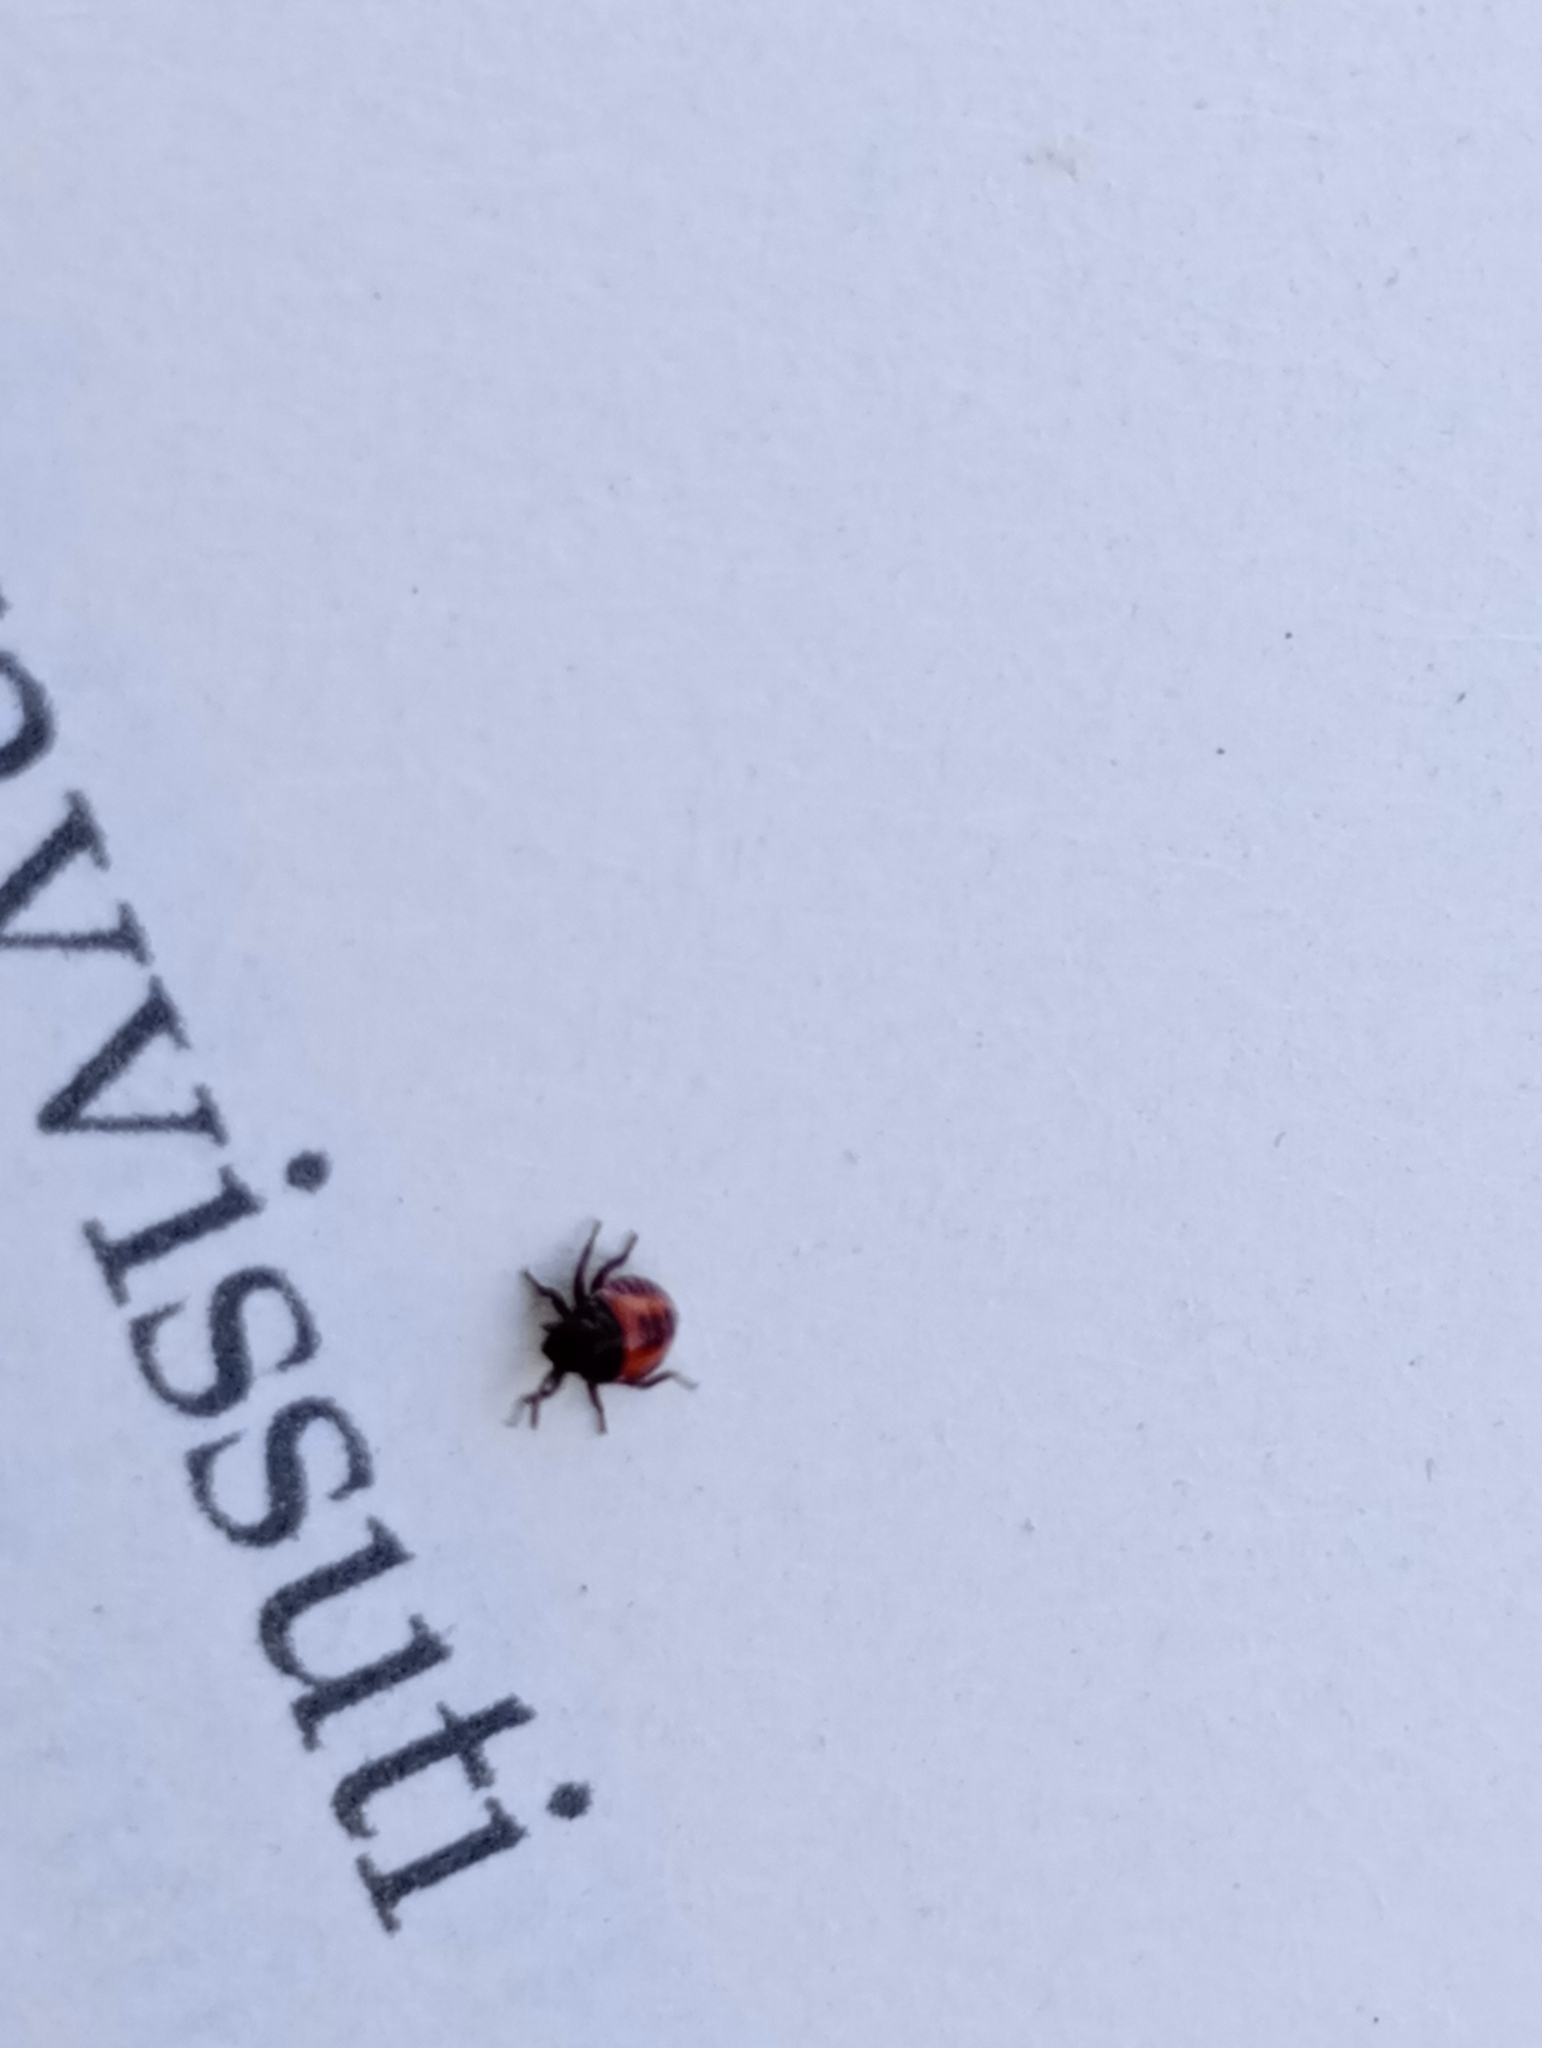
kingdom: Animalia
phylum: Arthropoda
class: Insecta
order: Hemiptera
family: Pentatomidae
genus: Halyomorpha
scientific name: Halyomorpha halys
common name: Brown marmorated stink bug
